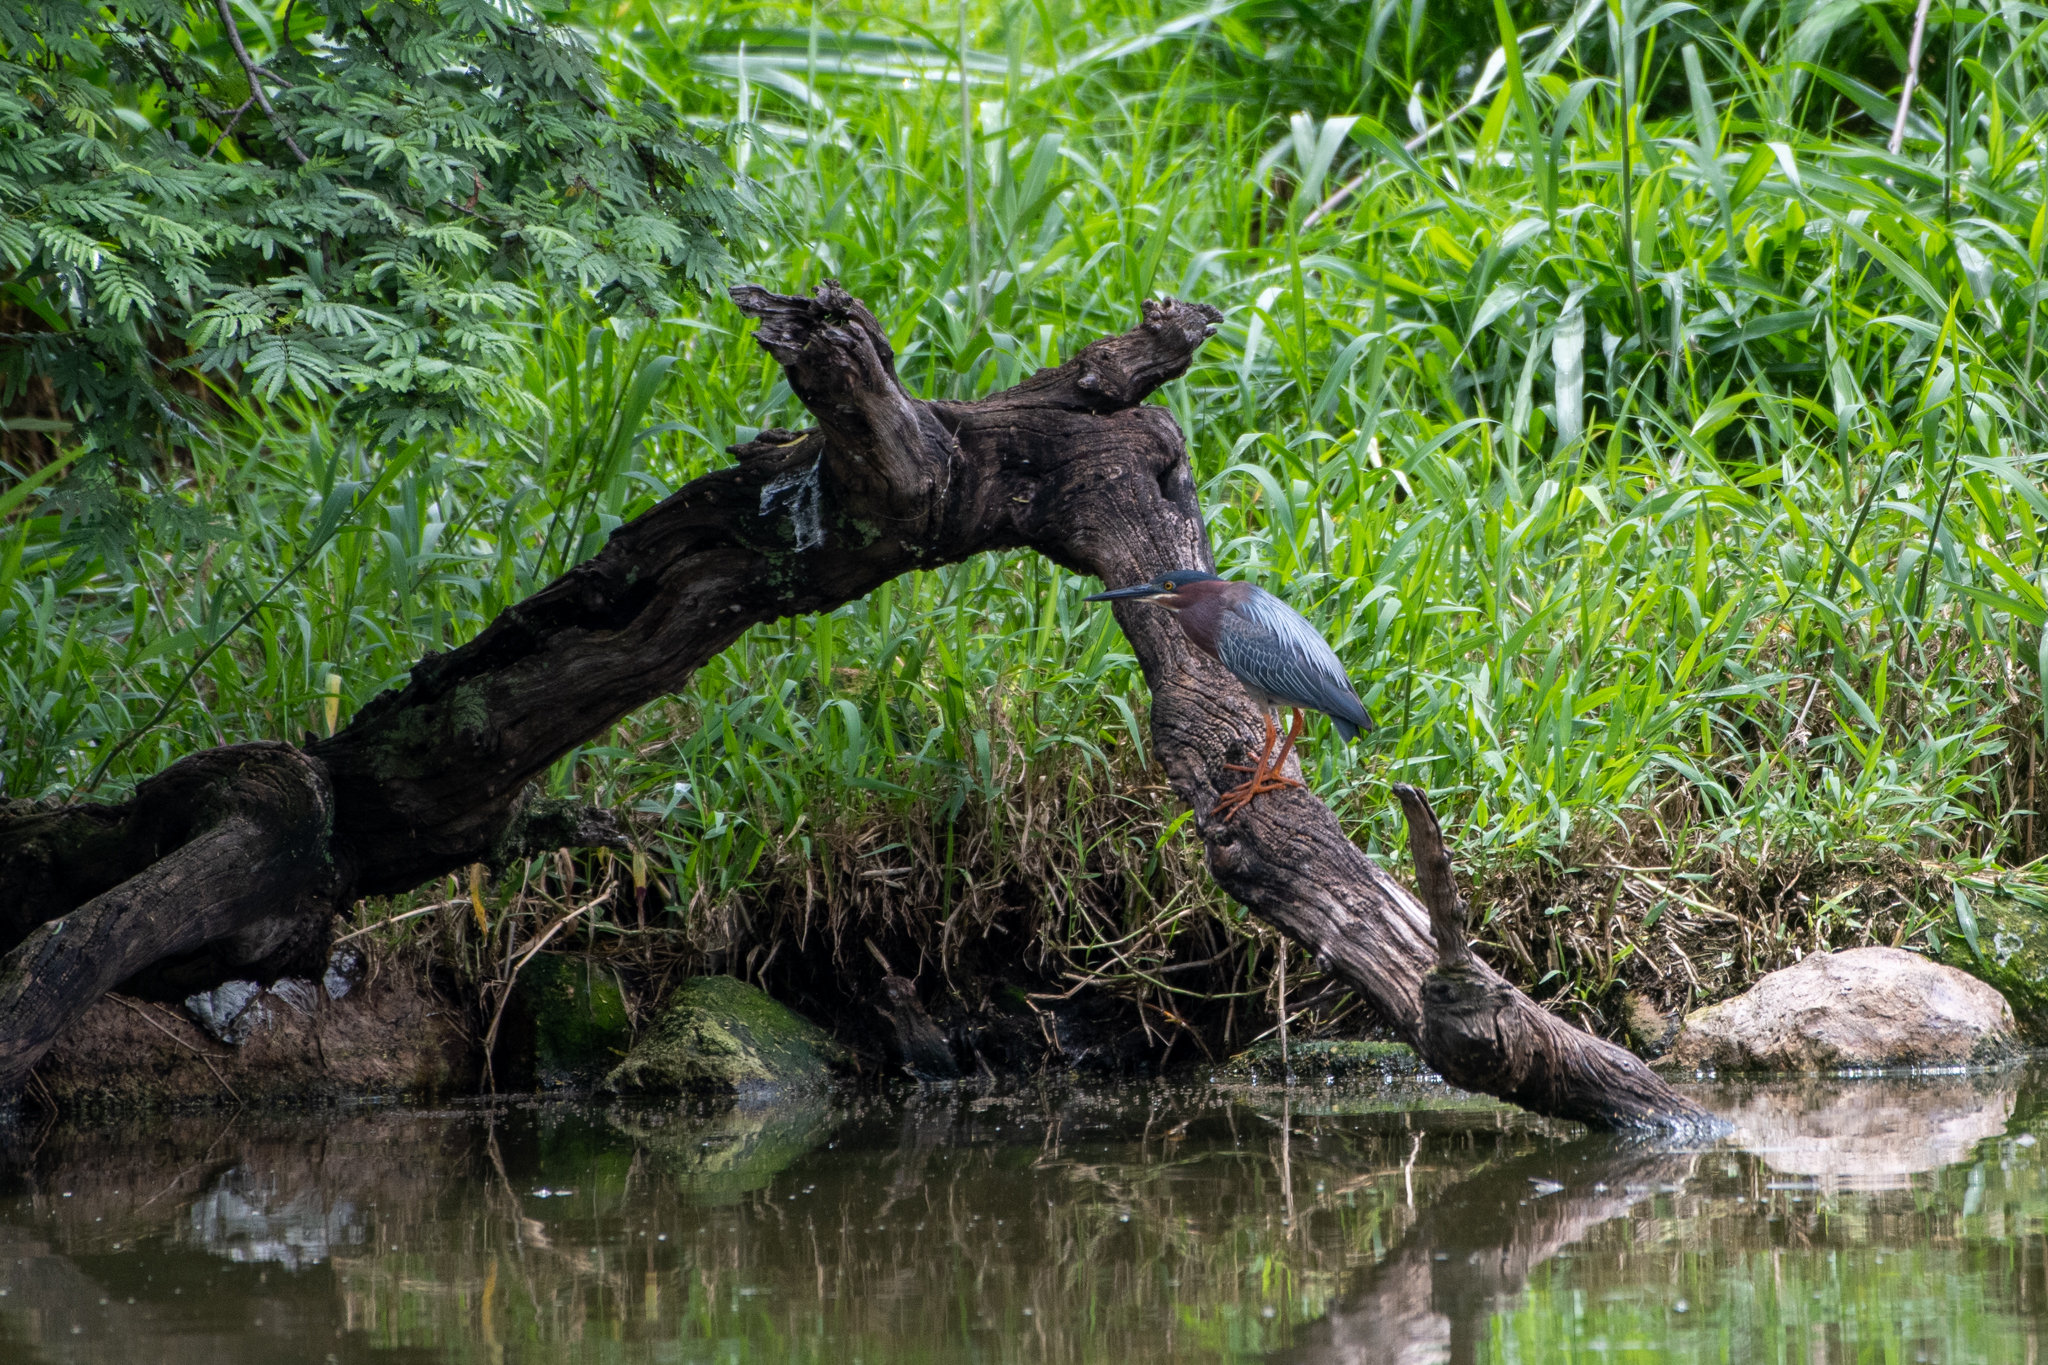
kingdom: Animalia
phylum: Chordata
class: Aves
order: Pelecaniformes
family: Ardeidae
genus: Butorides
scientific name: Butorides virescens
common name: Green heron
